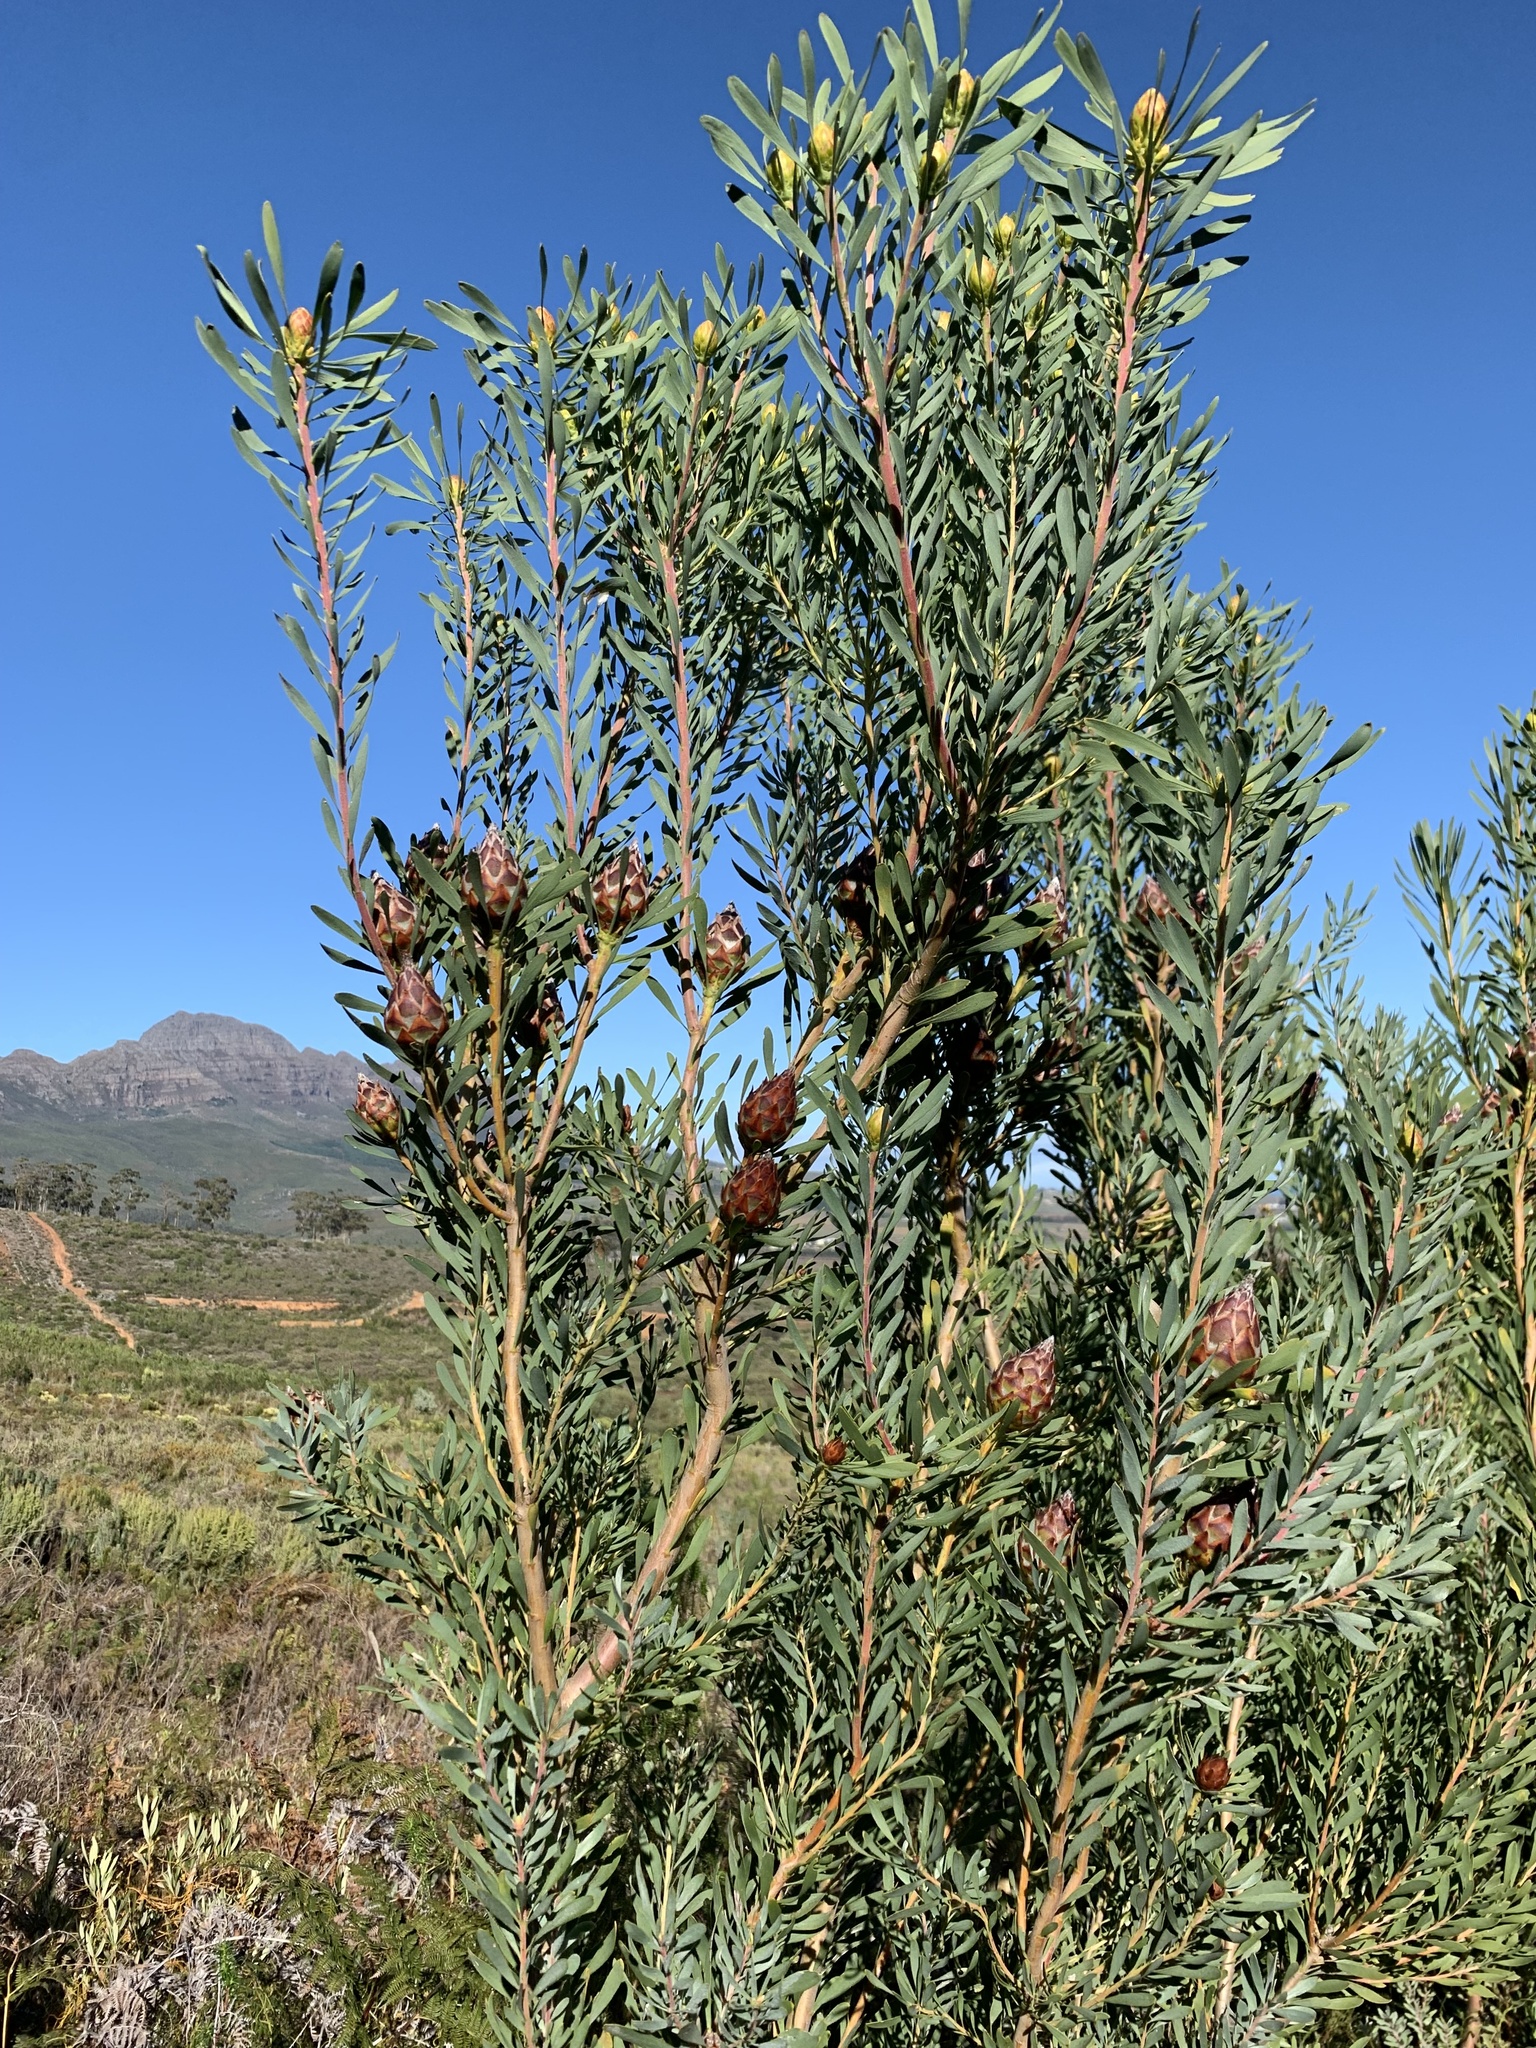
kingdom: Plantae
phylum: Tracheophyta
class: Magnoliopsida
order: Proteales
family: Proteaceae
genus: Leucadendron
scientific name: Leucadendron rubrum
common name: Spinning top
